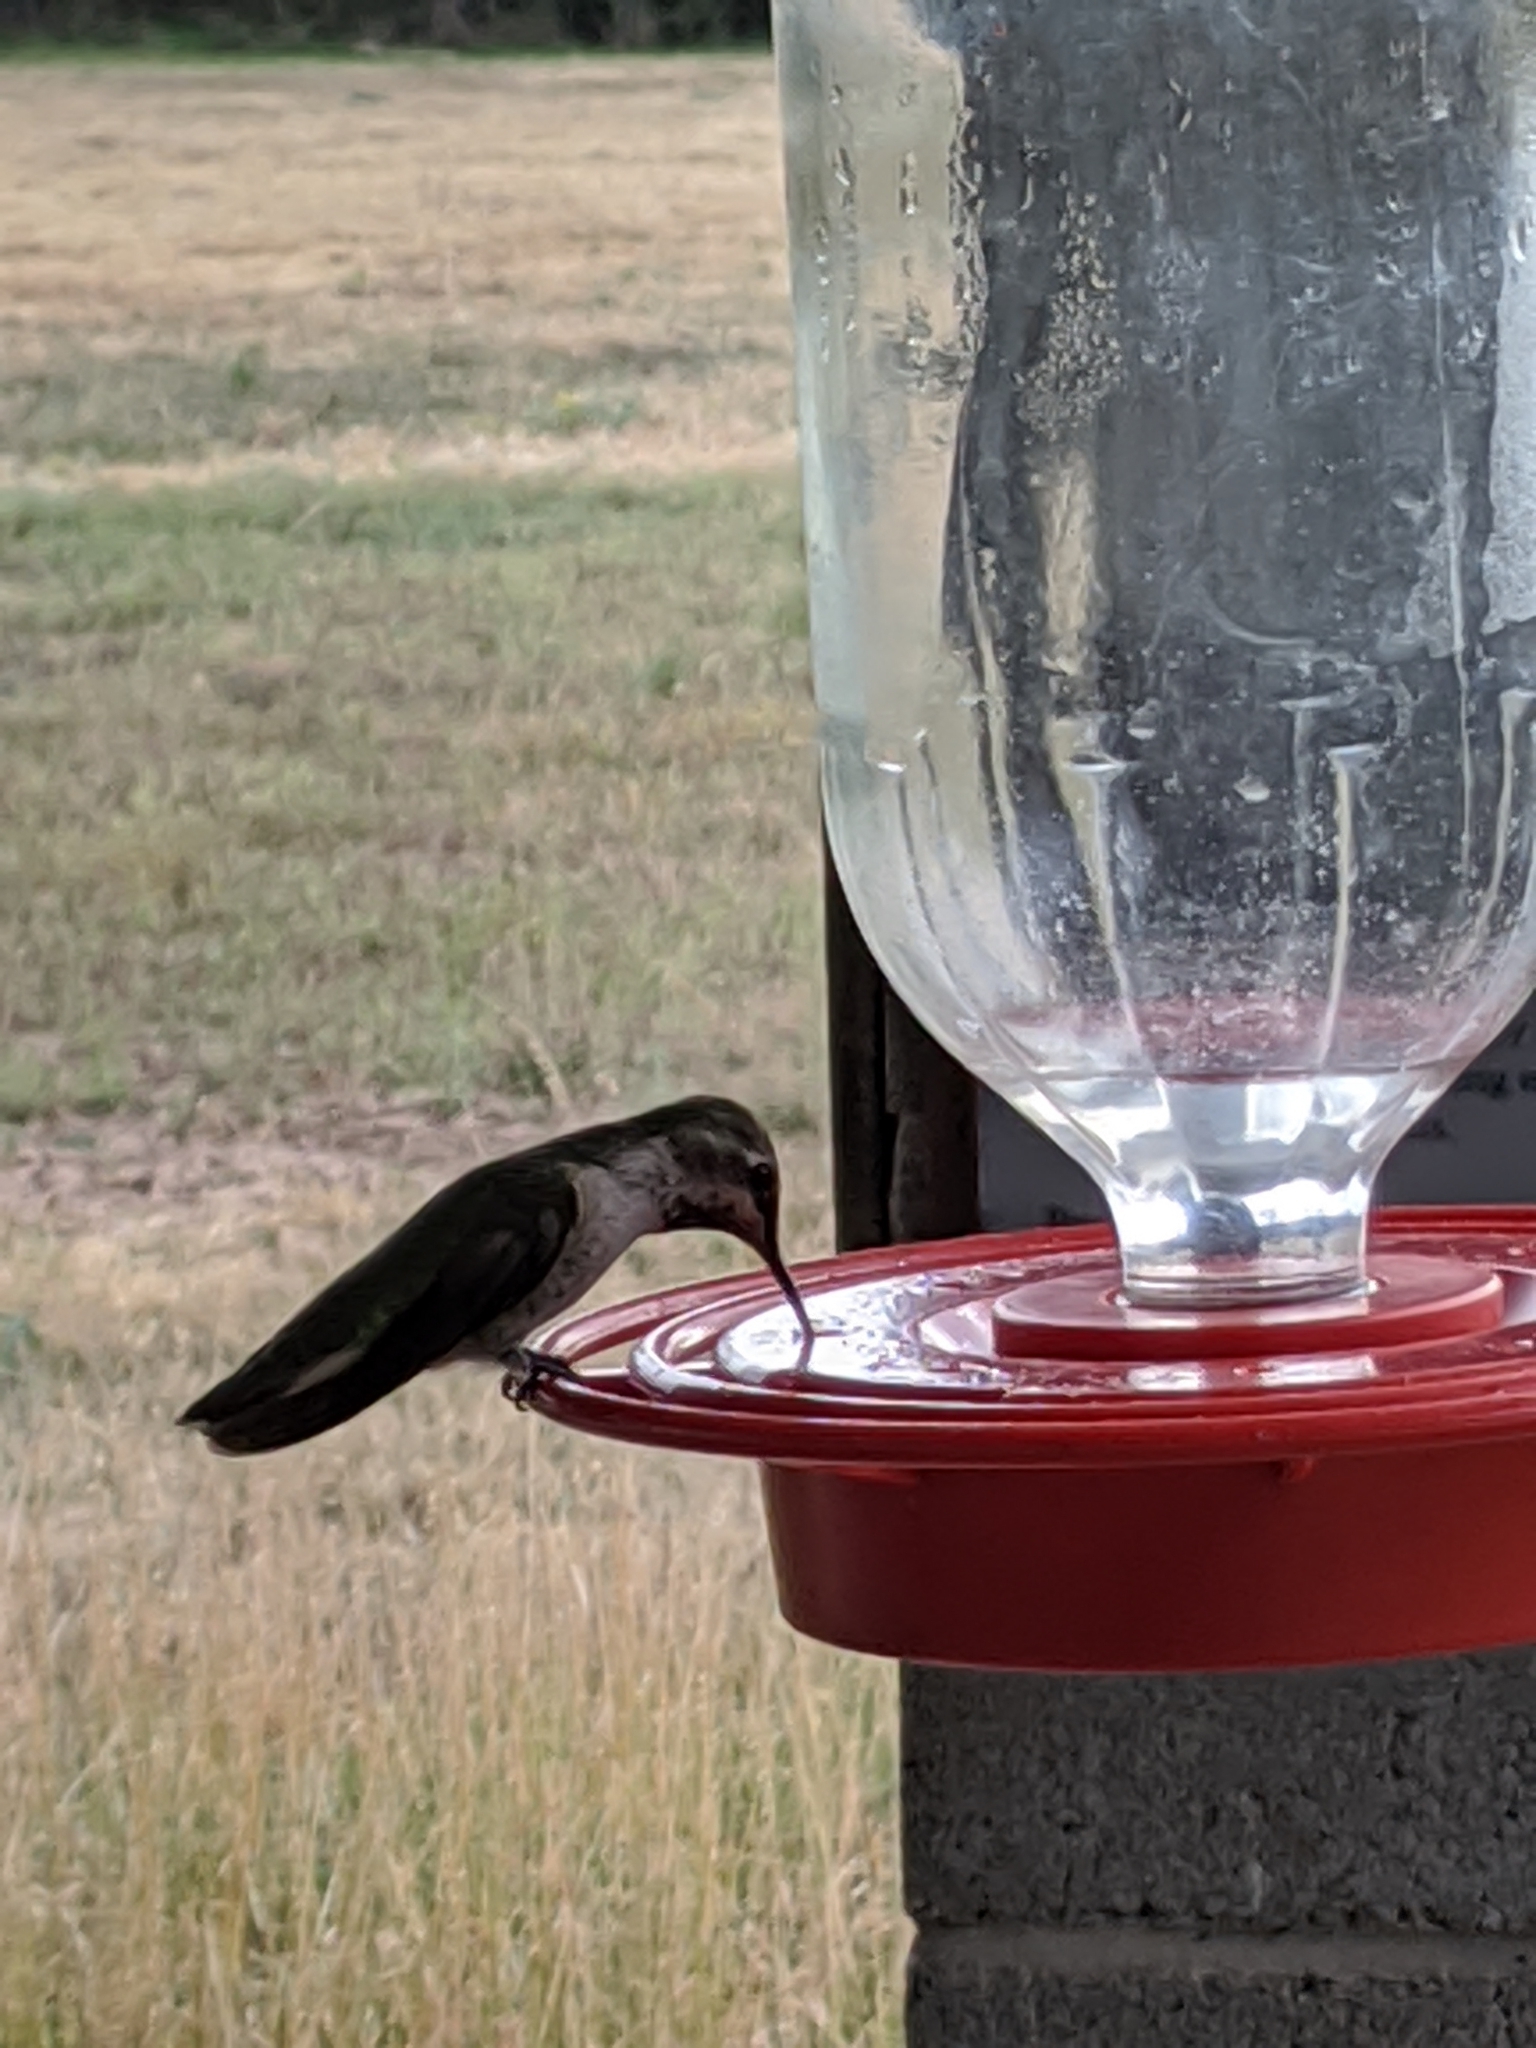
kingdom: Animalia
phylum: Chordata
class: Aves
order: Apodiformes
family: Trochilidae
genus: Calypte
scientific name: Calypte anna
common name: Anna's hummingbird
